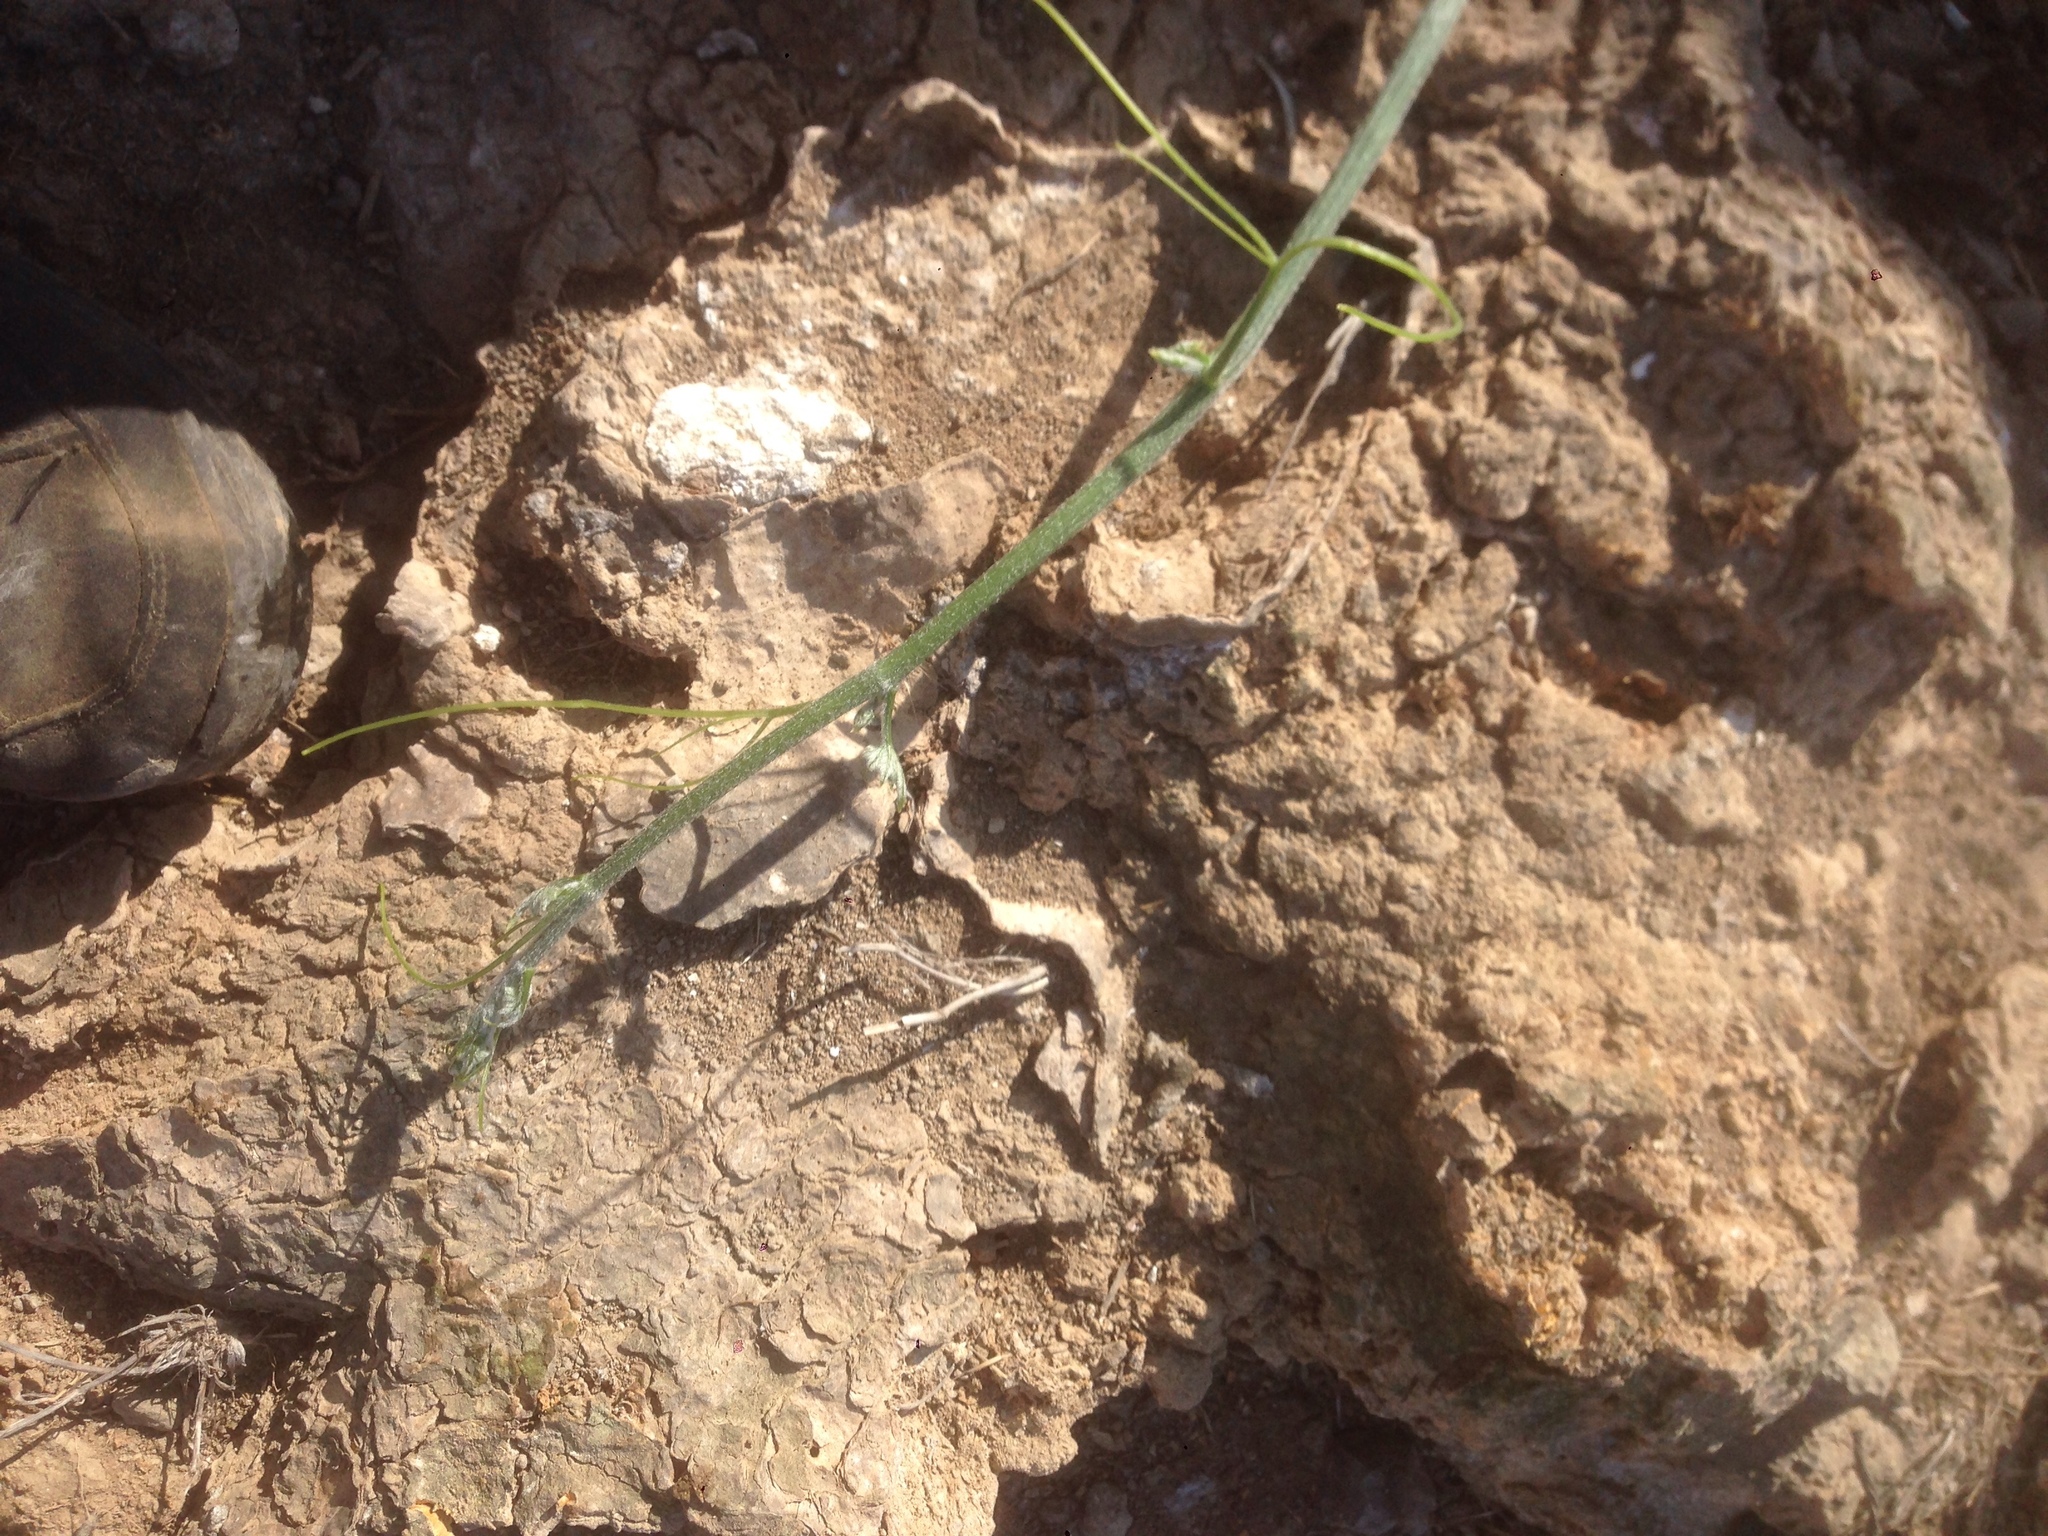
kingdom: Plantae
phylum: Tracheophyta
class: Magnoliopsida
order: Cucurbitales
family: Cucurbitaceae
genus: Marah
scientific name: Marah macrocarpa
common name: Cucamonga manroot
